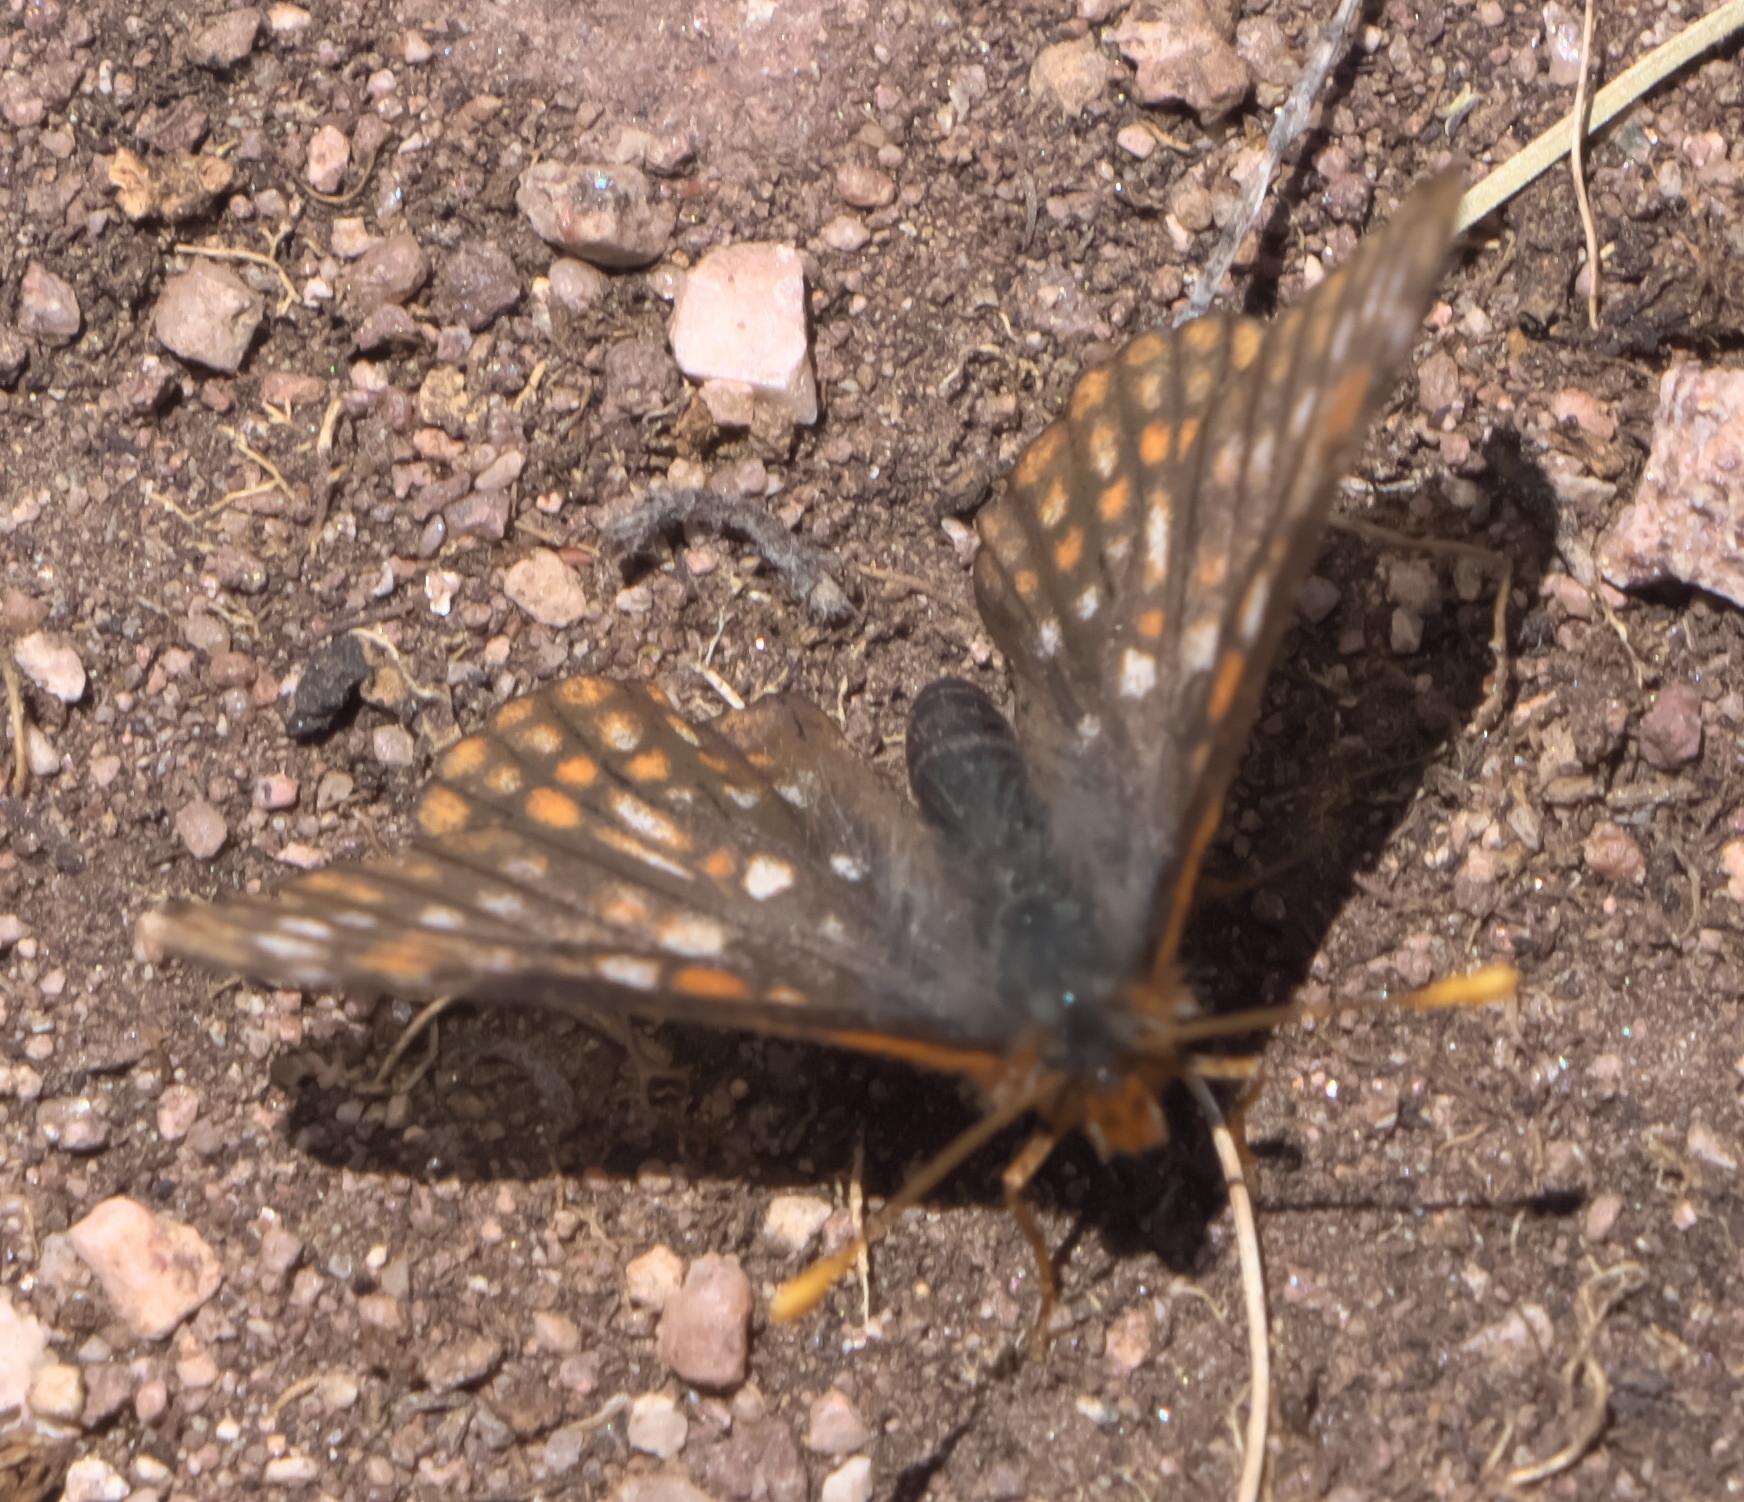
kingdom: Animalia
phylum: Arthropoda
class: Insecta
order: Lepidoptera
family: Nymphalidae
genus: Occidryas
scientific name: Occidryas anicia
